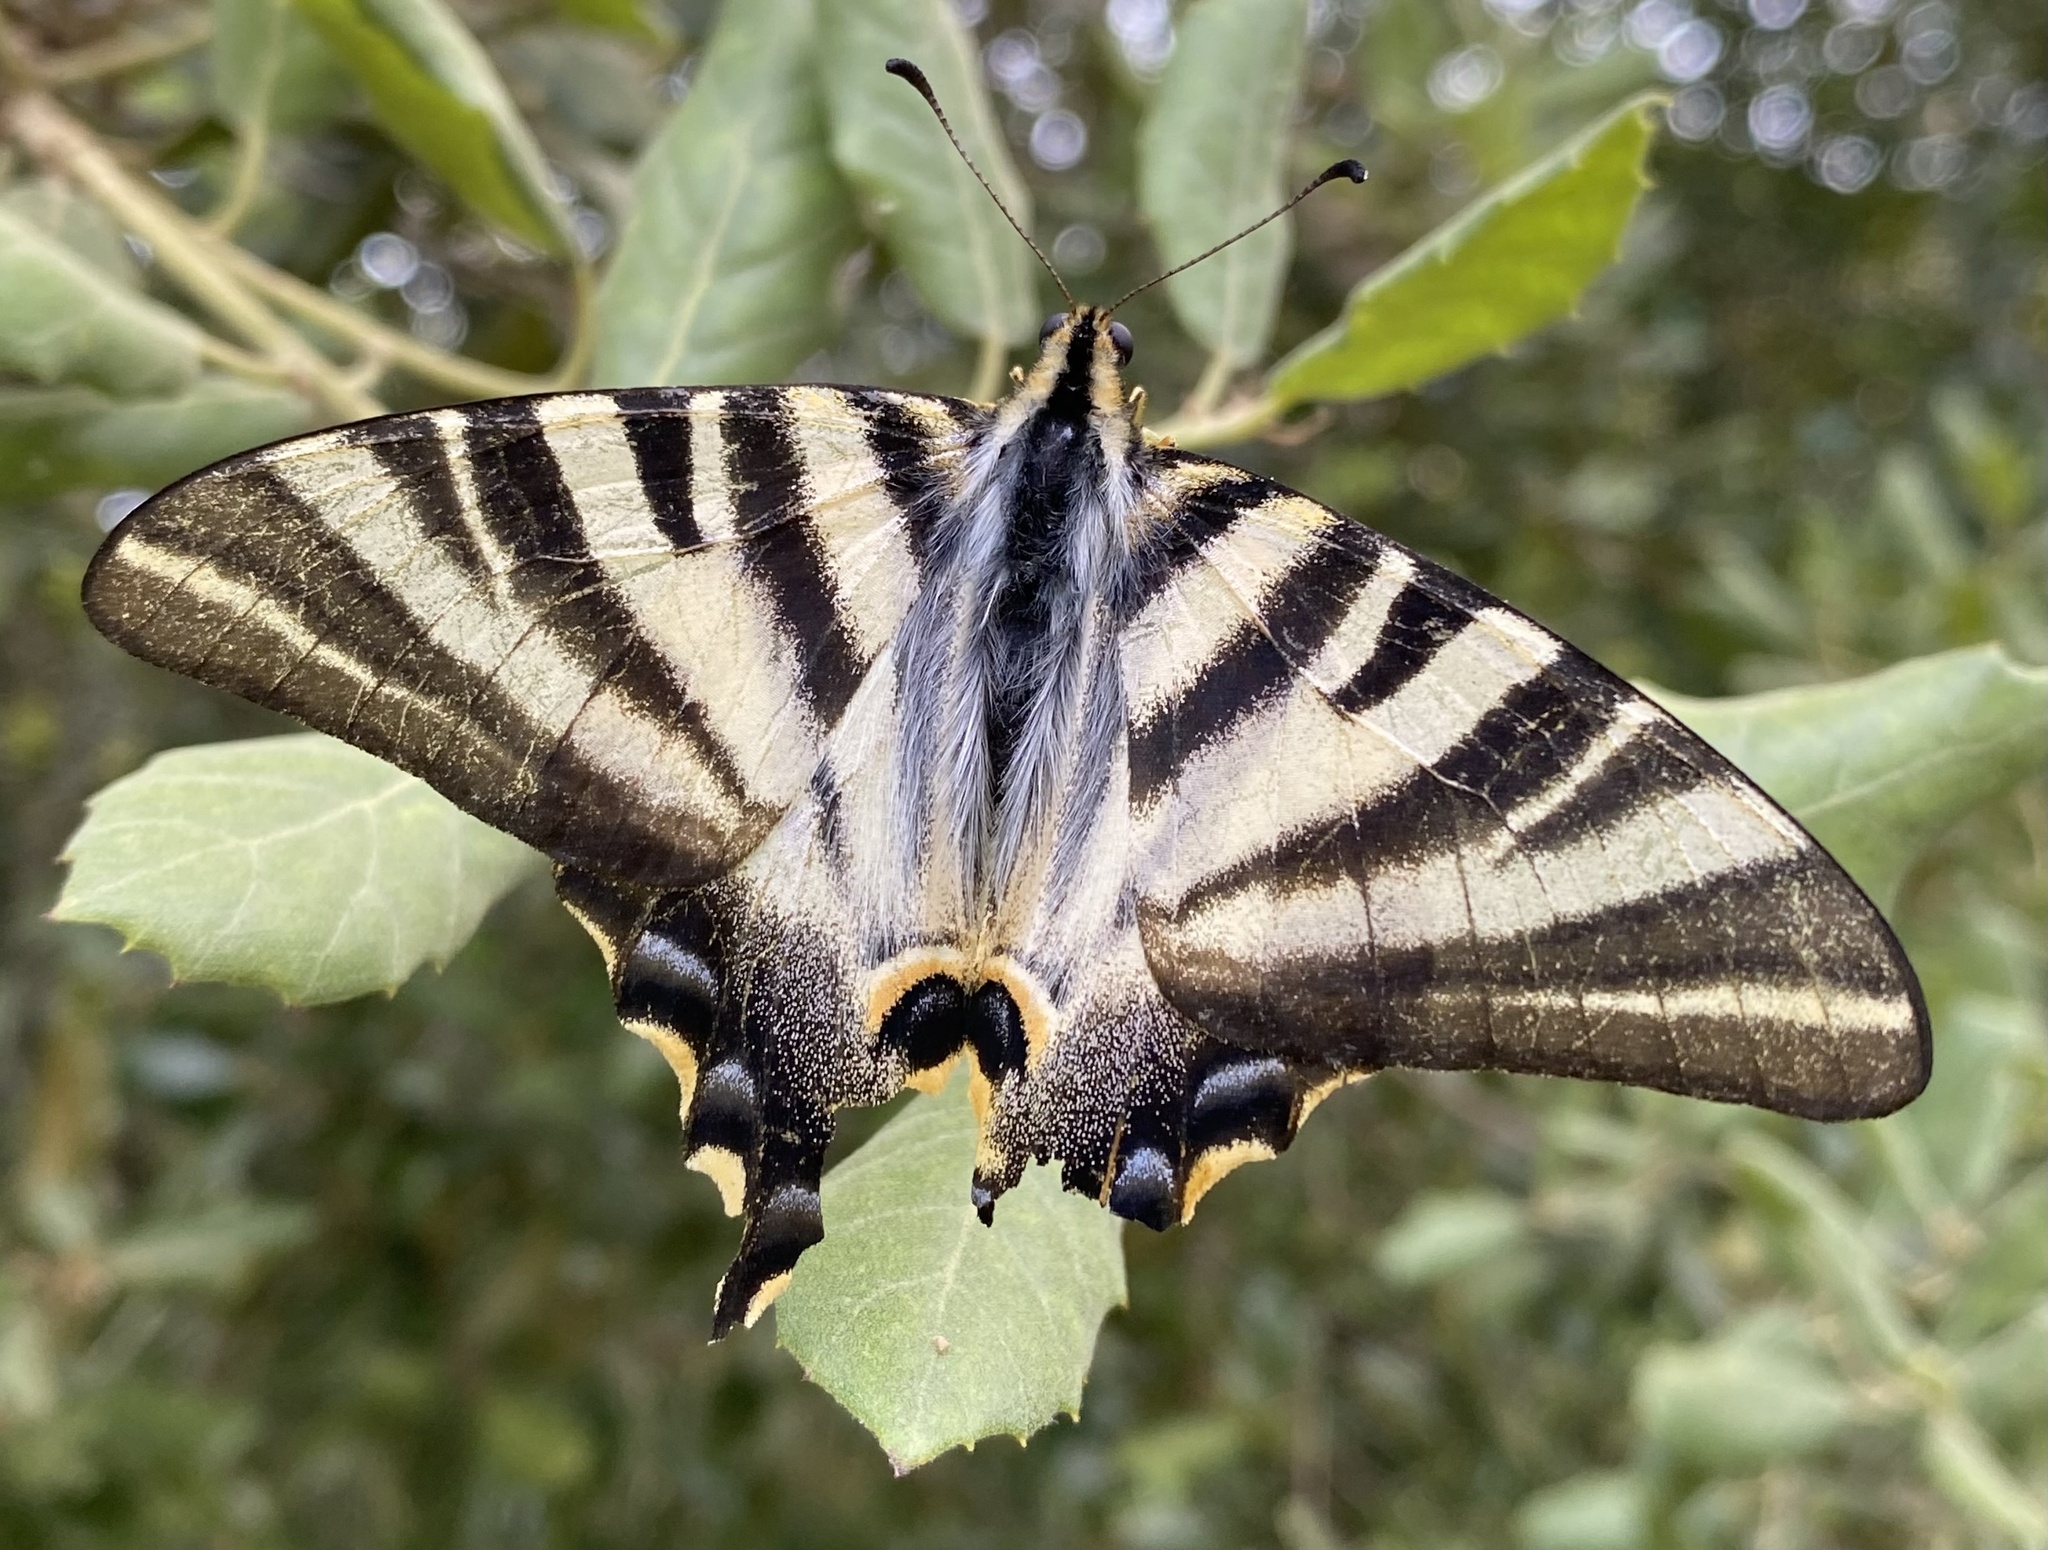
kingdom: Animalia
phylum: Arthropoda
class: Insecta
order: Lepidoptera
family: Papilionidae
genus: Iphiclides
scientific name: Iphiclides feisthamelii
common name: Iberian scarce swallowtail
